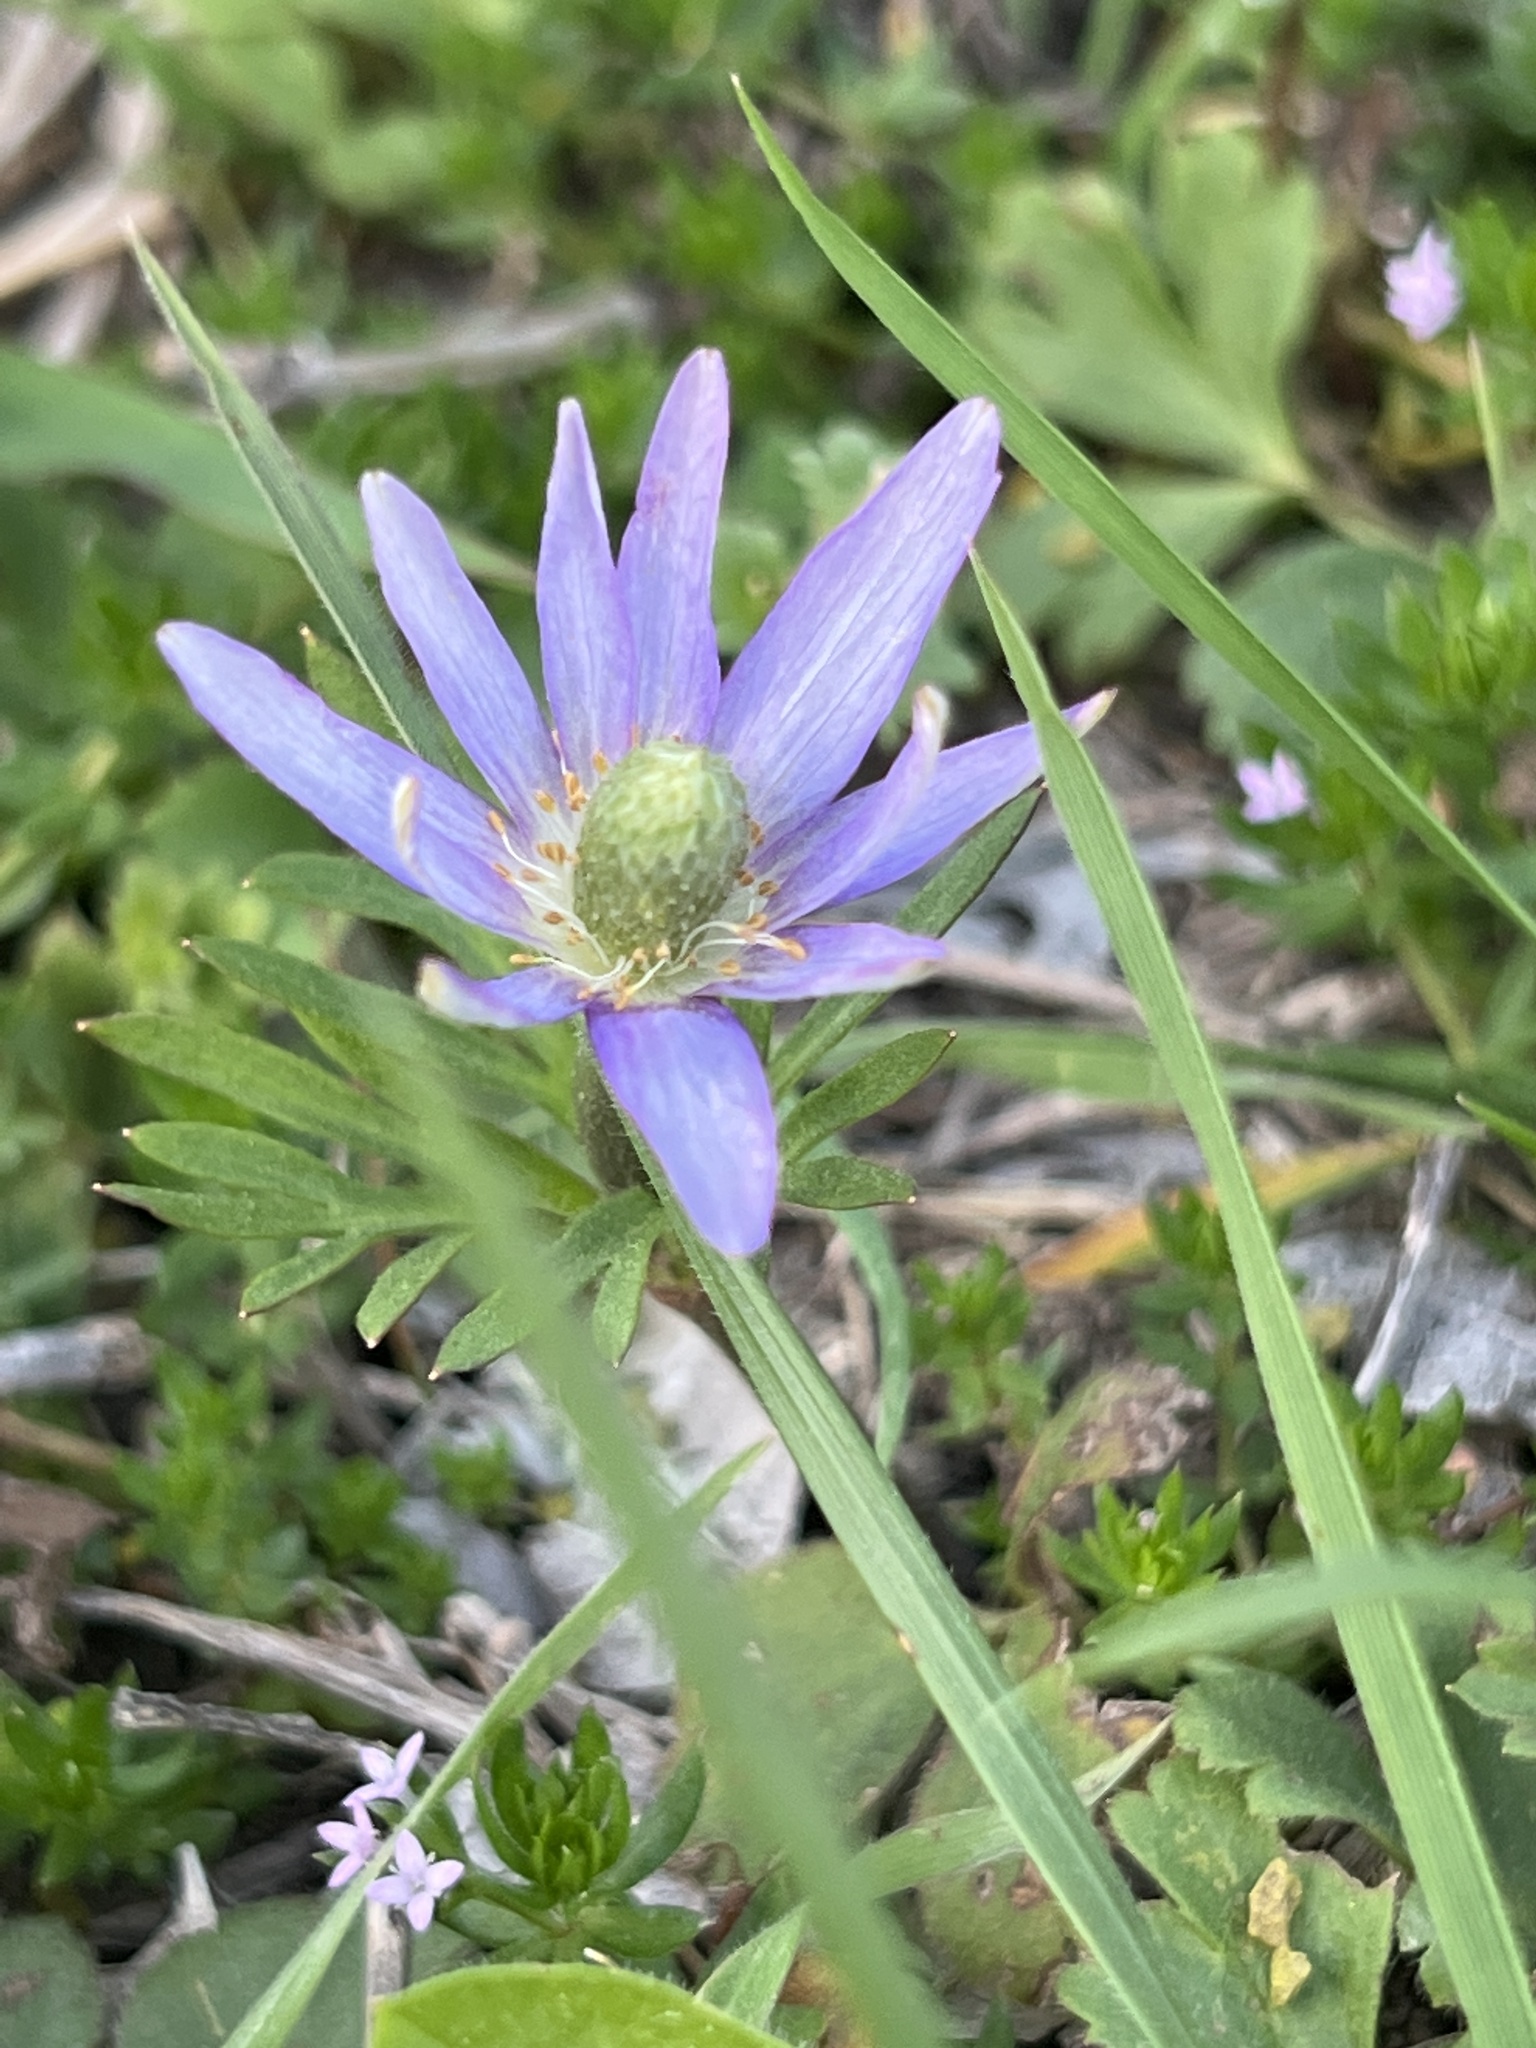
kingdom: Plantae
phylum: Tracheophyta
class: Magnoliopsida
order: Ranunculales
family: Ranunculaceae
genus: Anemone
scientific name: Anemone berlandieri
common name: Ten-petal anemone
